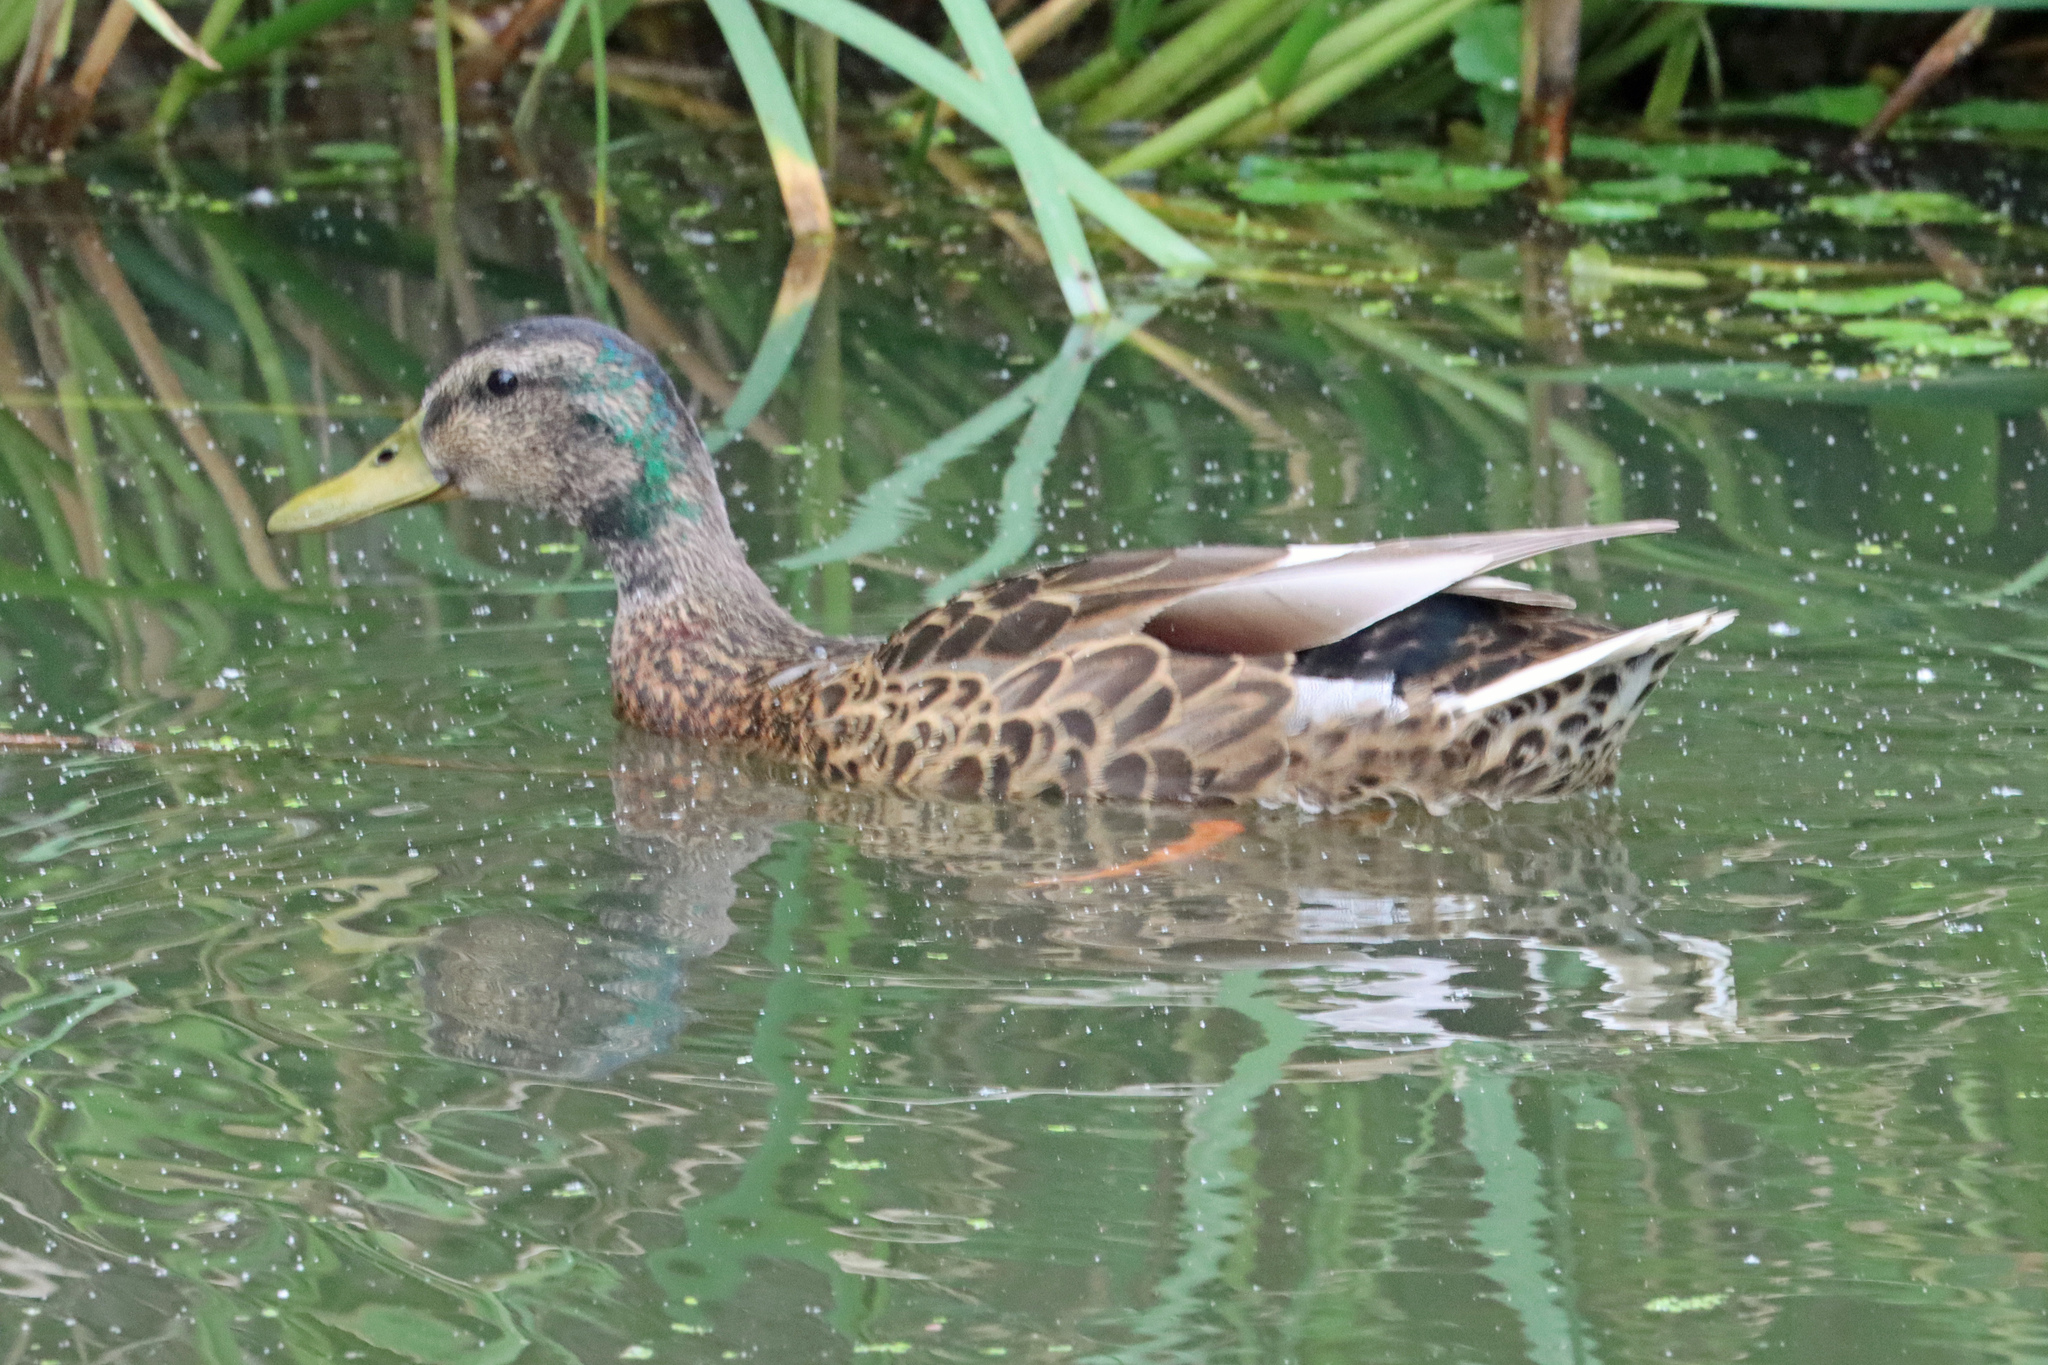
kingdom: Animalia
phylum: Chordata
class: Aves
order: Anseriformes
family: Anatidae
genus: Anas
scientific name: Anas platyrhynchos
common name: Mallard
